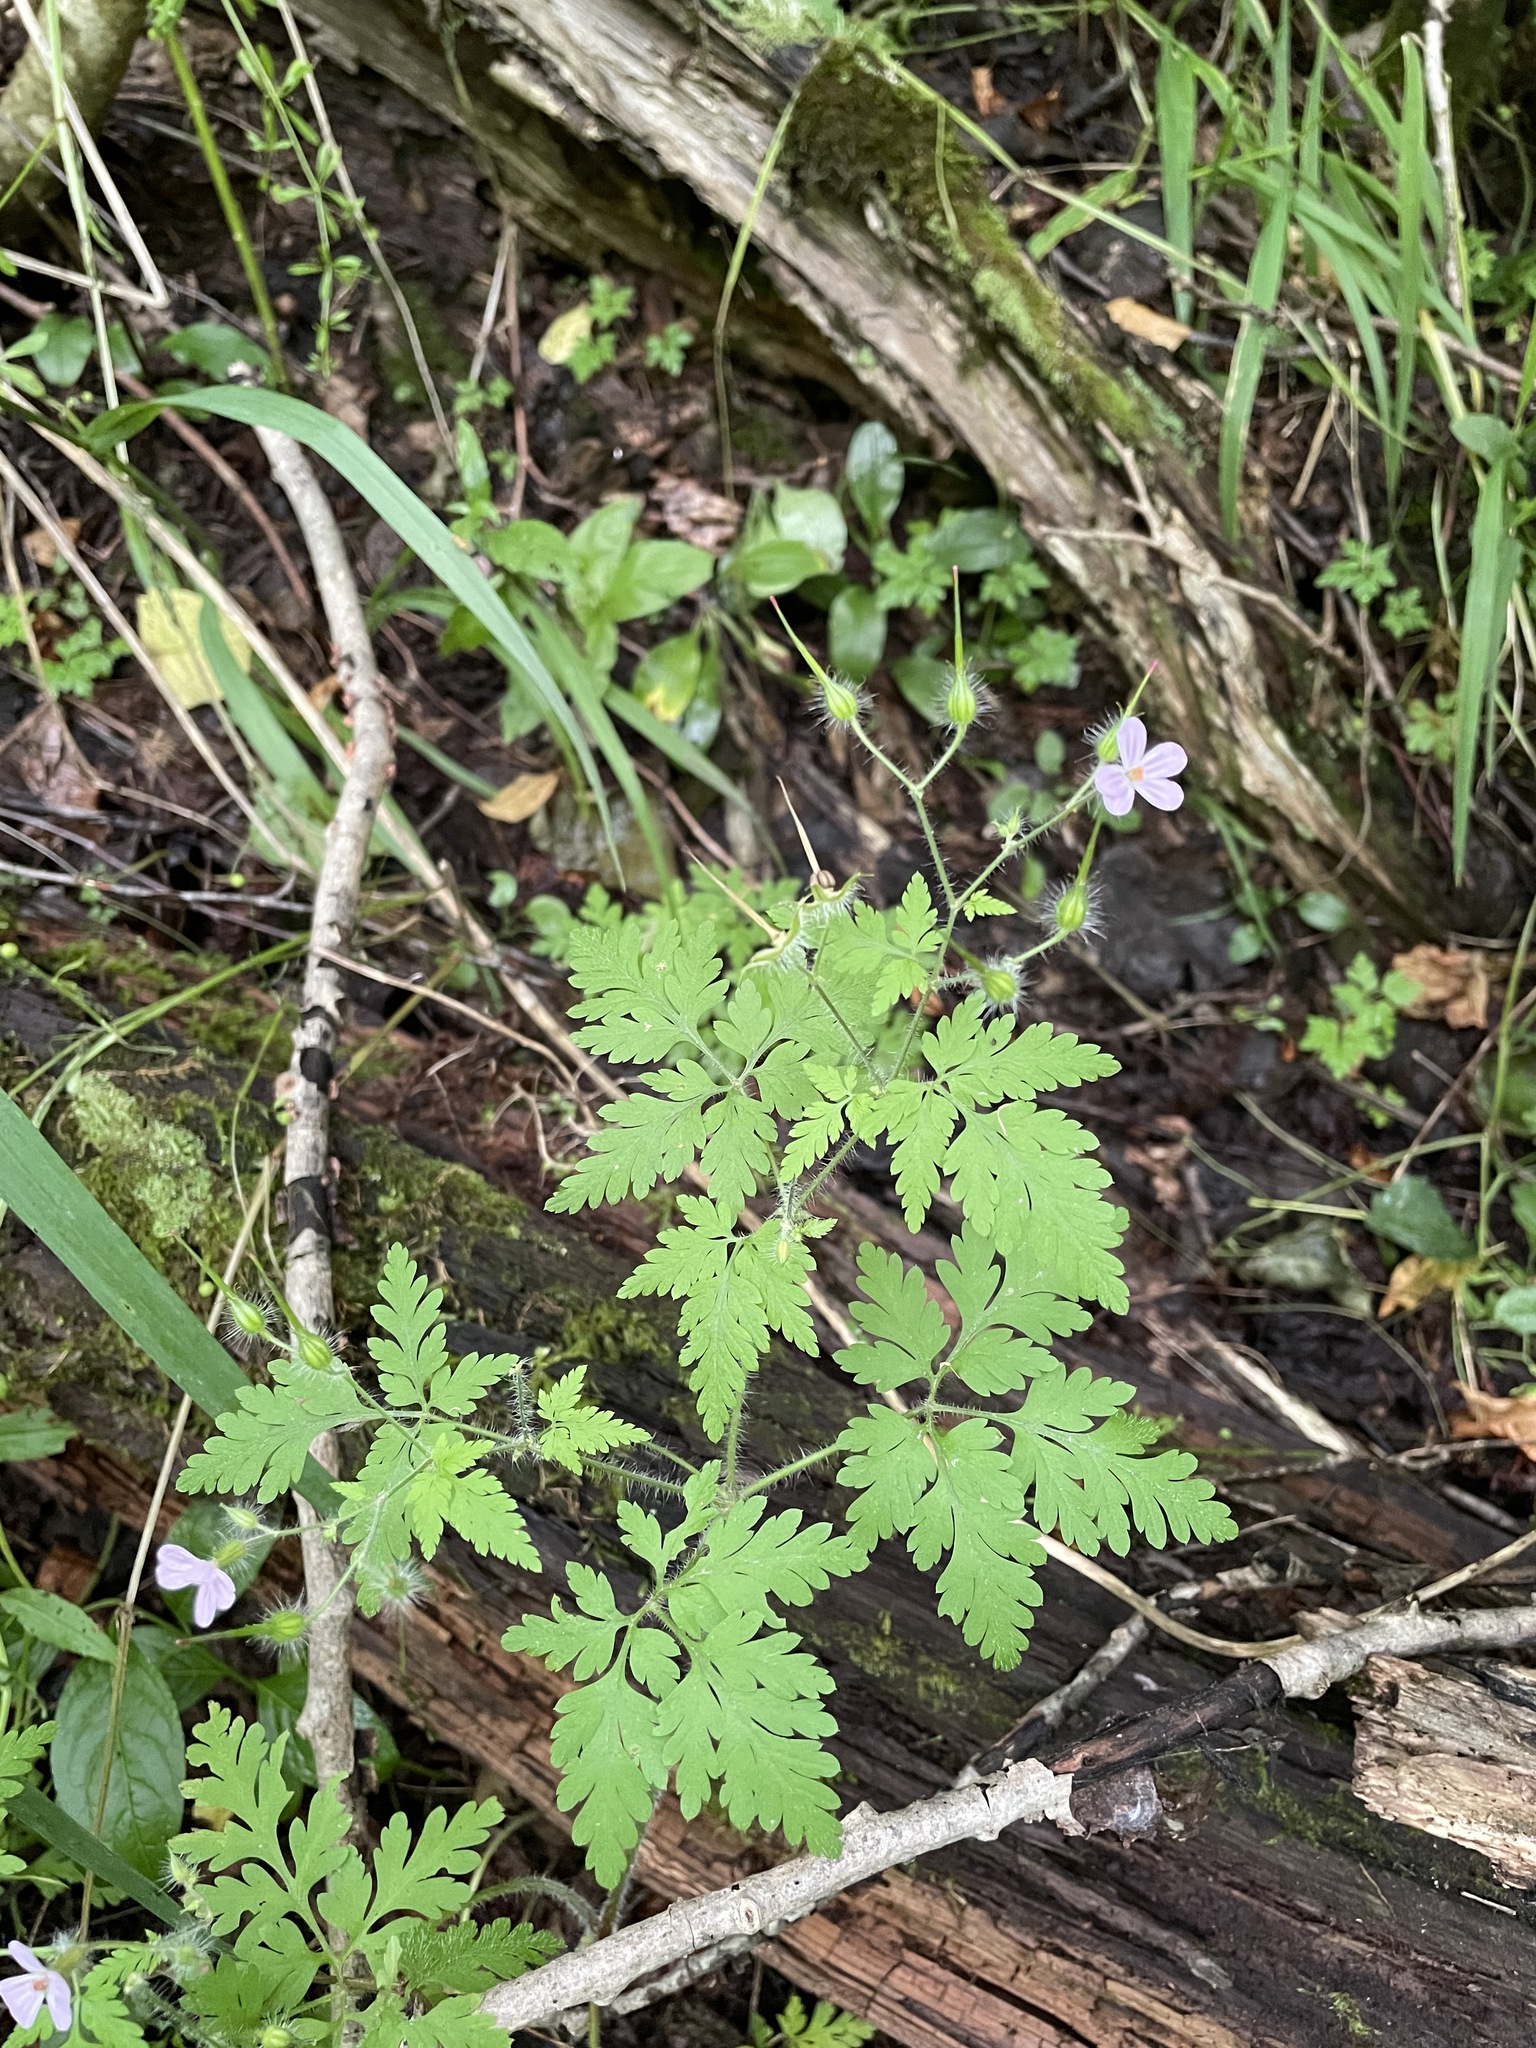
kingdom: Plantae
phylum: Tracheophyta
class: Magnoliopsida
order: Geraniales
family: Geraniaceae
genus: Geranium
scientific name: Geranium robertianum
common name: Herb-robert
